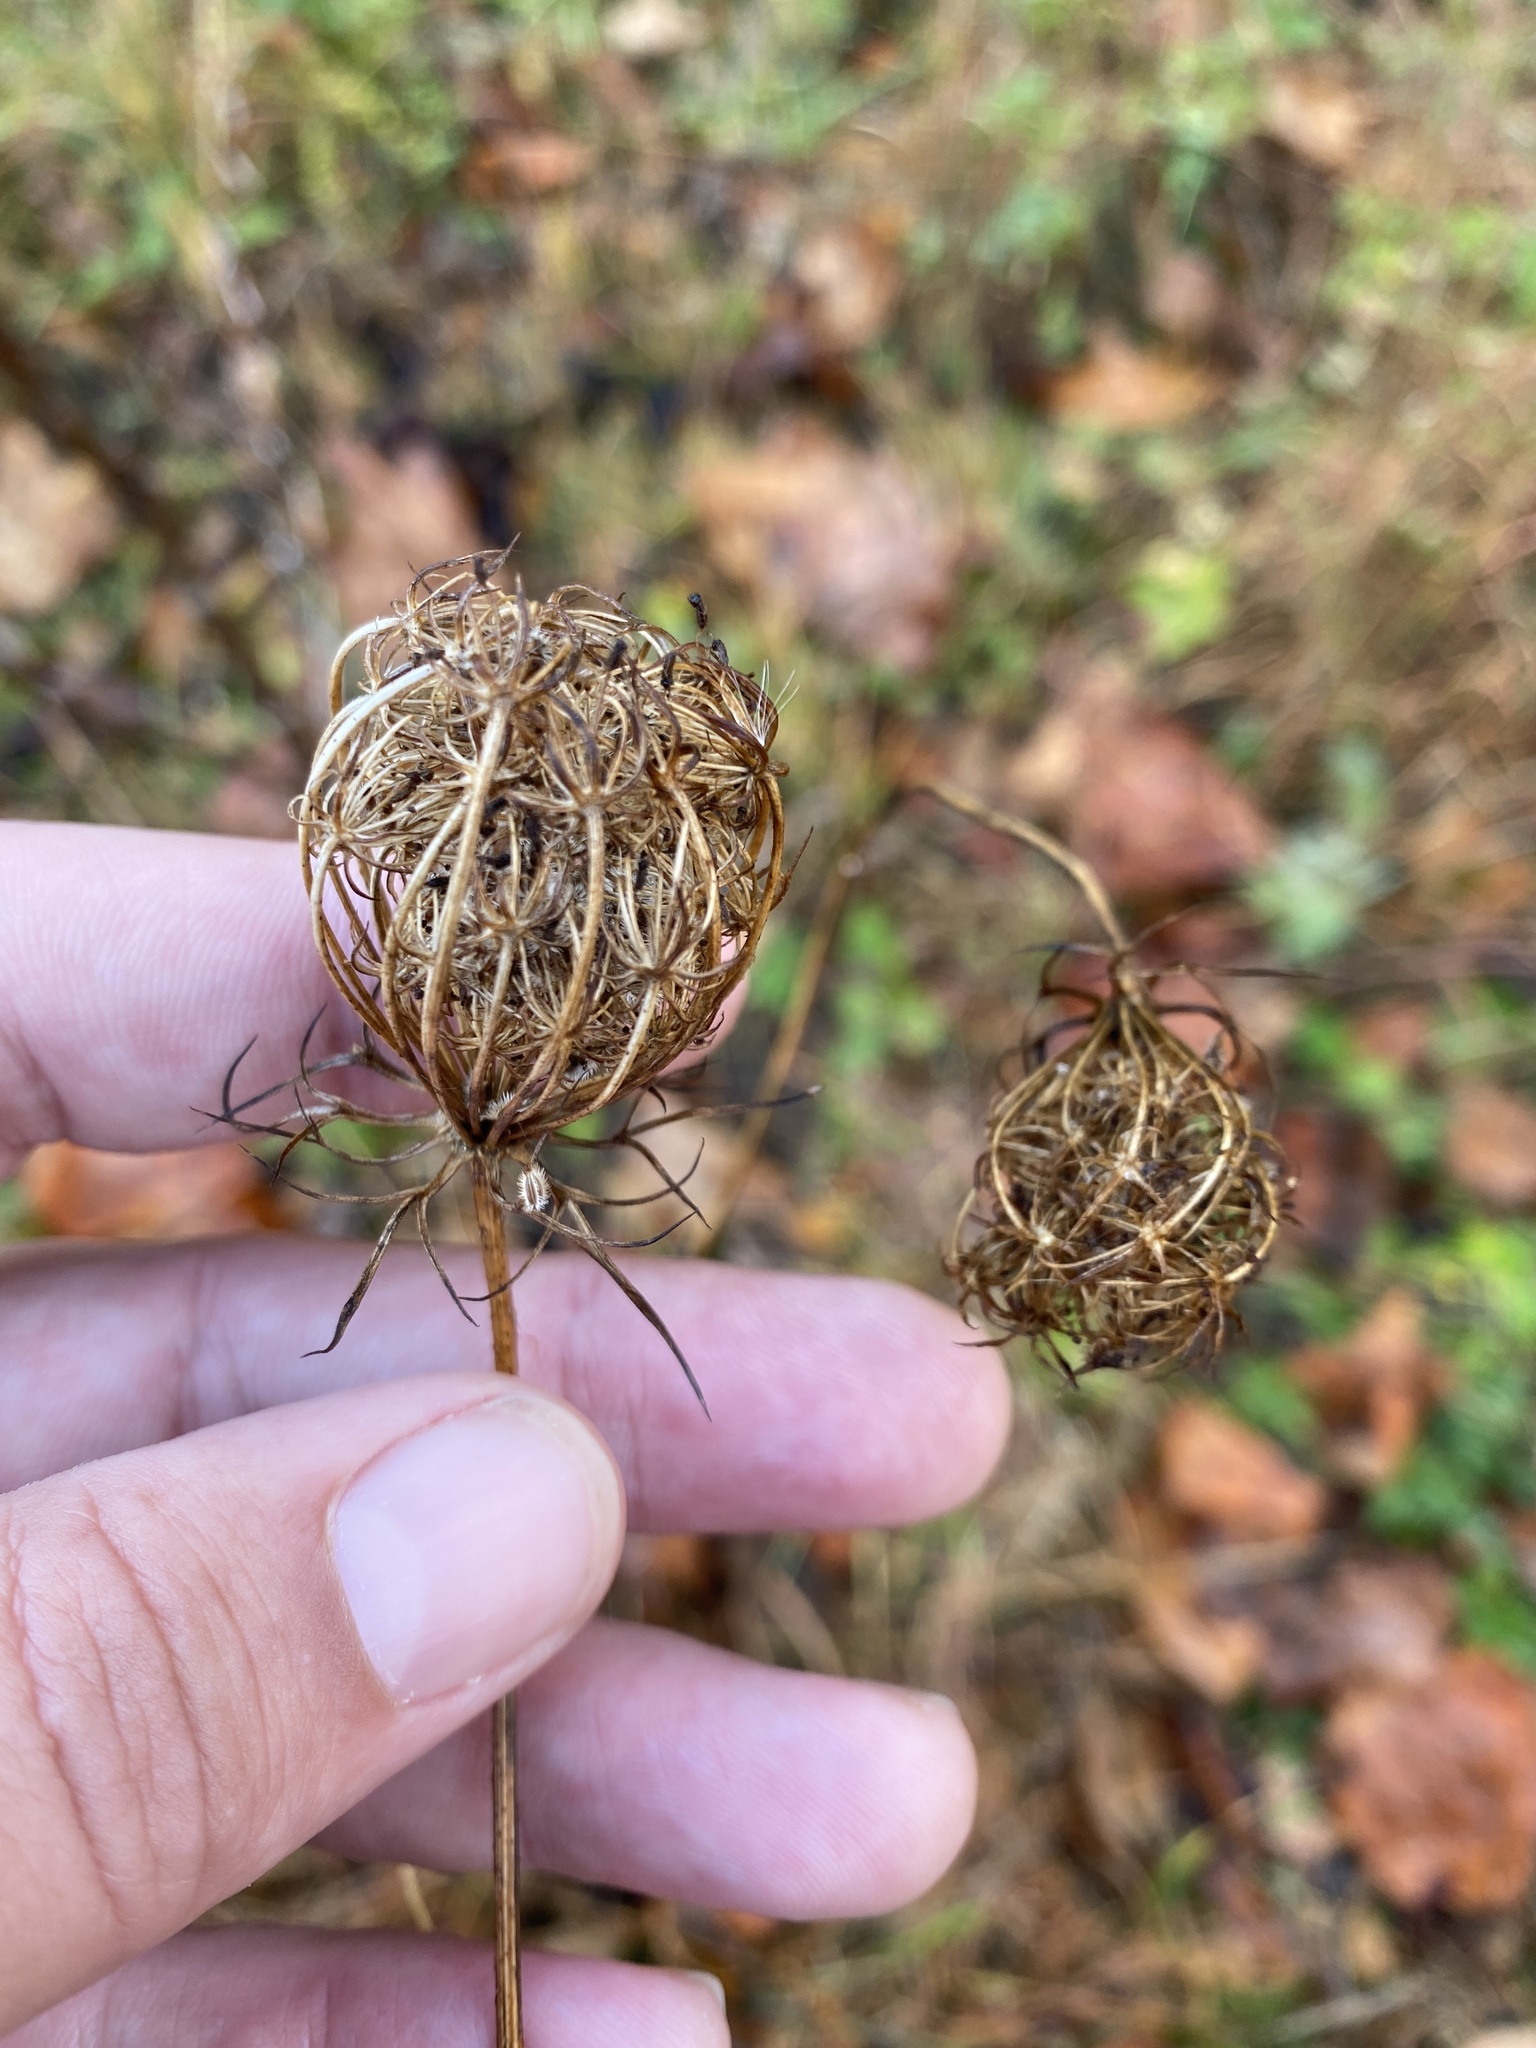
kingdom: Plantae
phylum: Tracheophyta
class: Magnoliopsida
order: Apiales
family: Apiaceae
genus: Daucus
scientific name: Daucus carota
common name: Wild carrot
